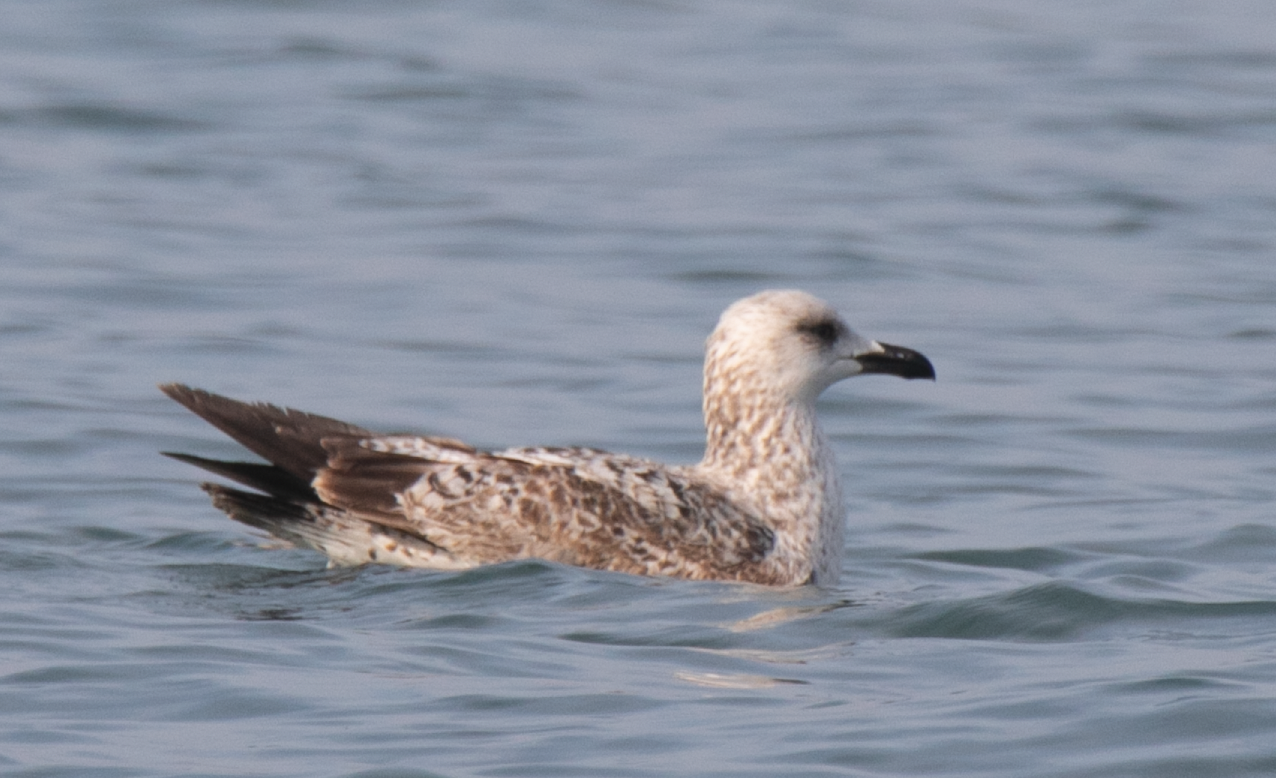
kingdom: Animalia
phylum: Chordata
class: Aves
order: Charadriiformes
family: Laridae
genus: Larus
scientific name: Larus michahellis
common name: Yellow-legged gull
